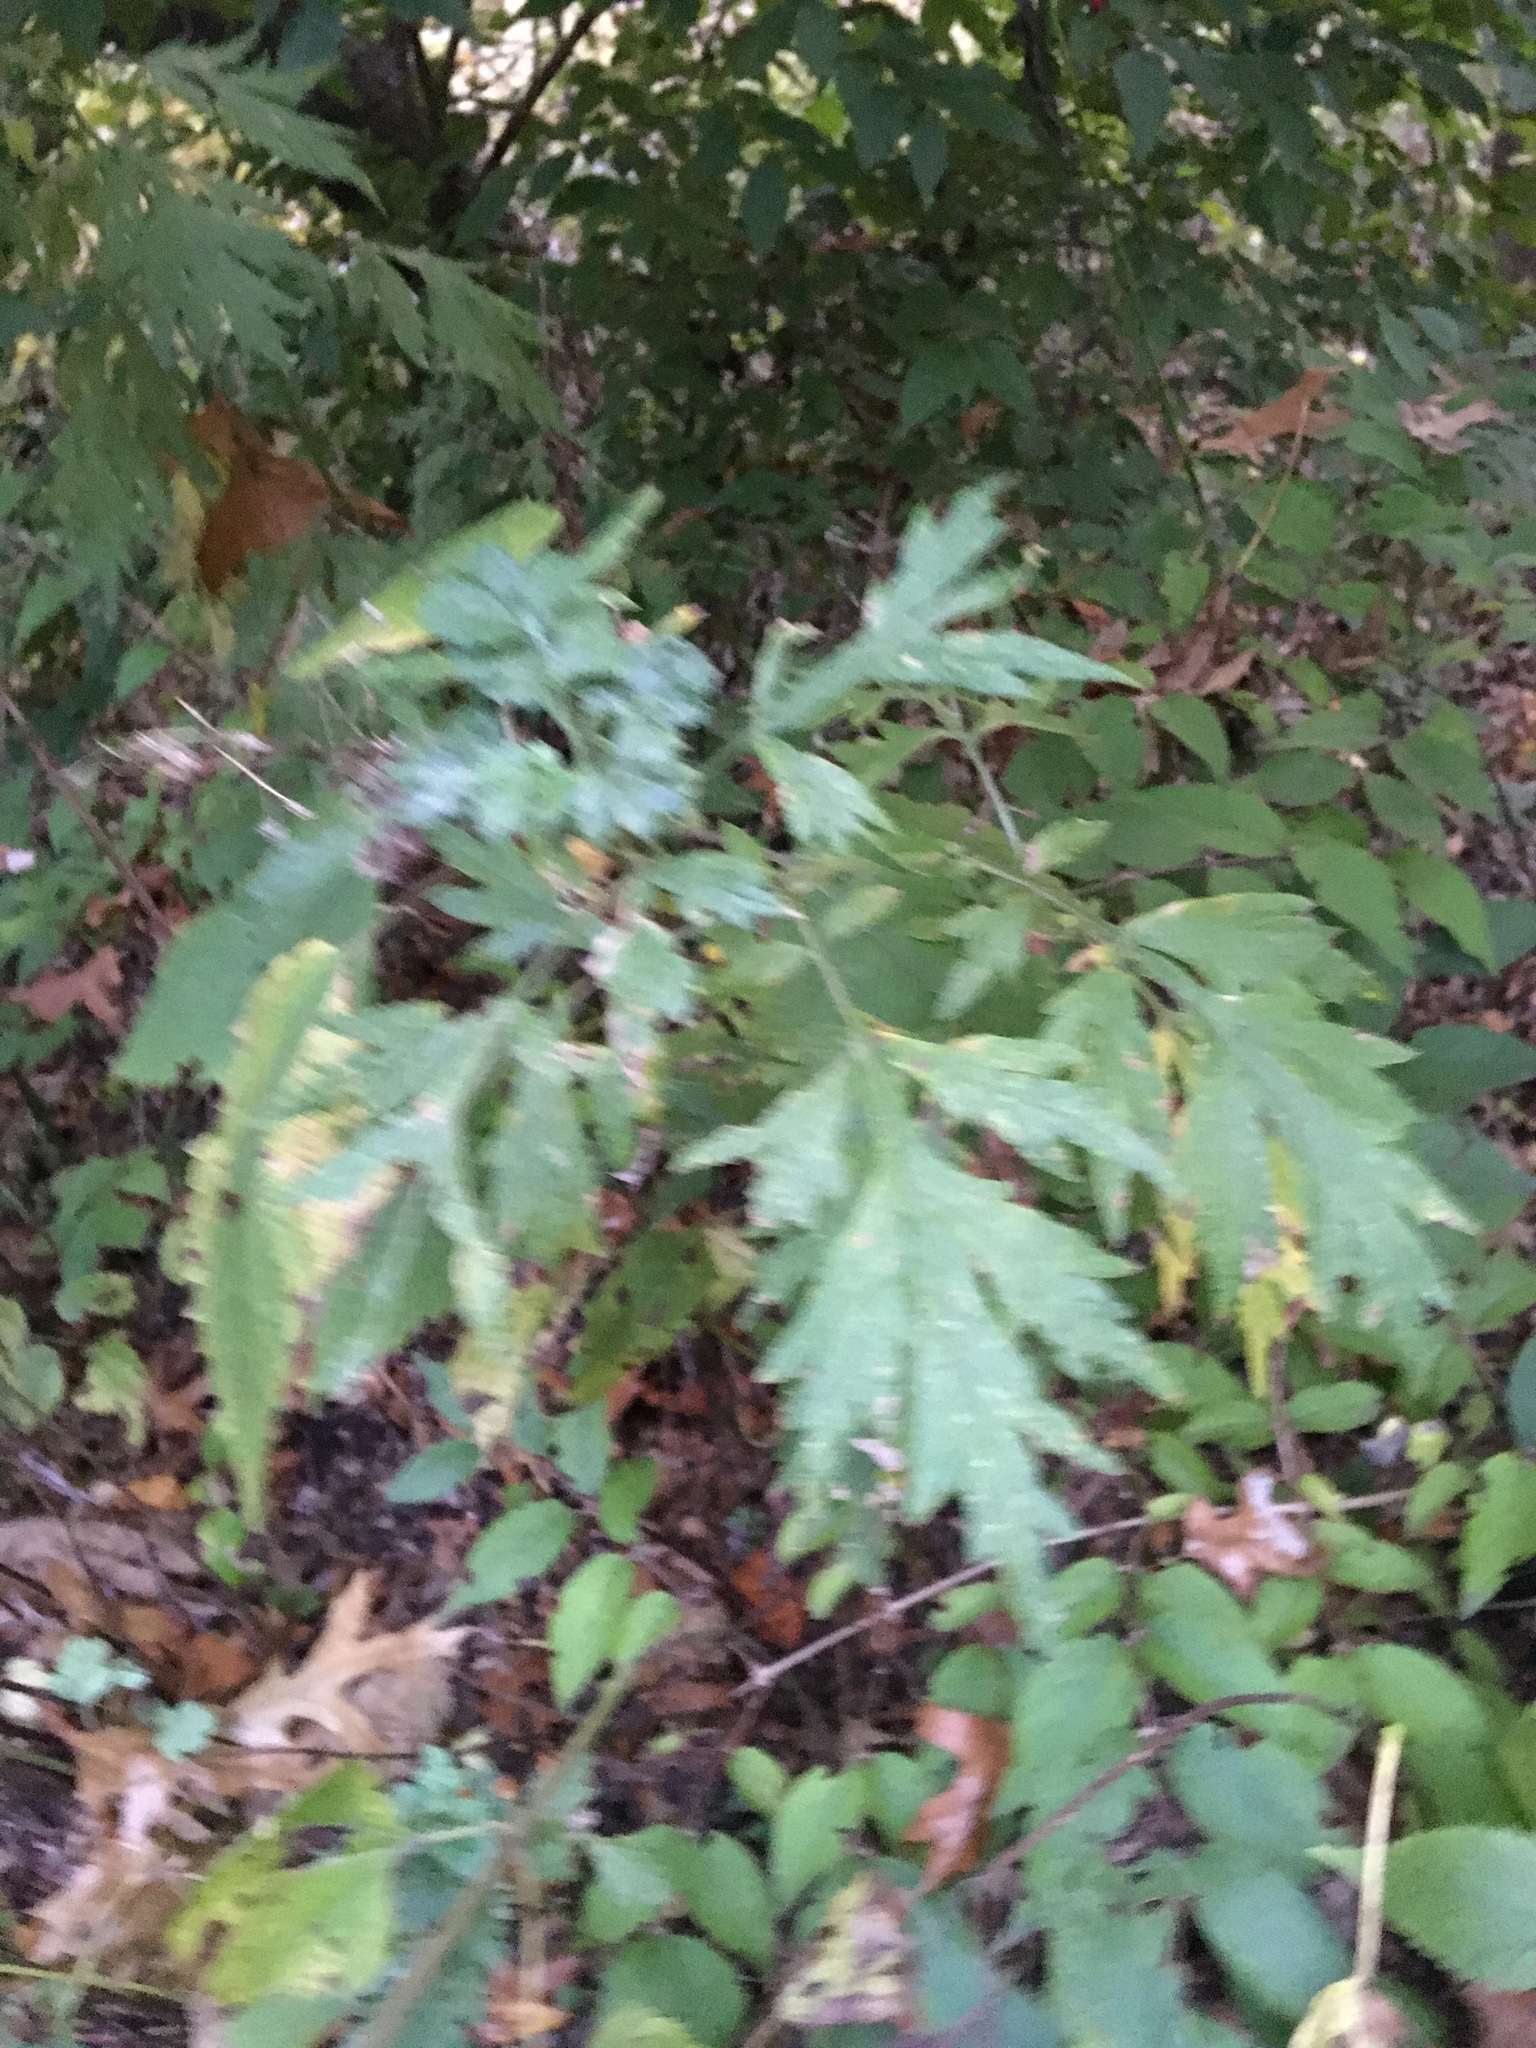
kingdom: Plantae
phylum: Tracheophyta
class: Magnoliopsida
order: Asterales
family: Asteraceae
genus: Artemisia
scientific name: Artemisia vulgaris
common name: Mugwort
